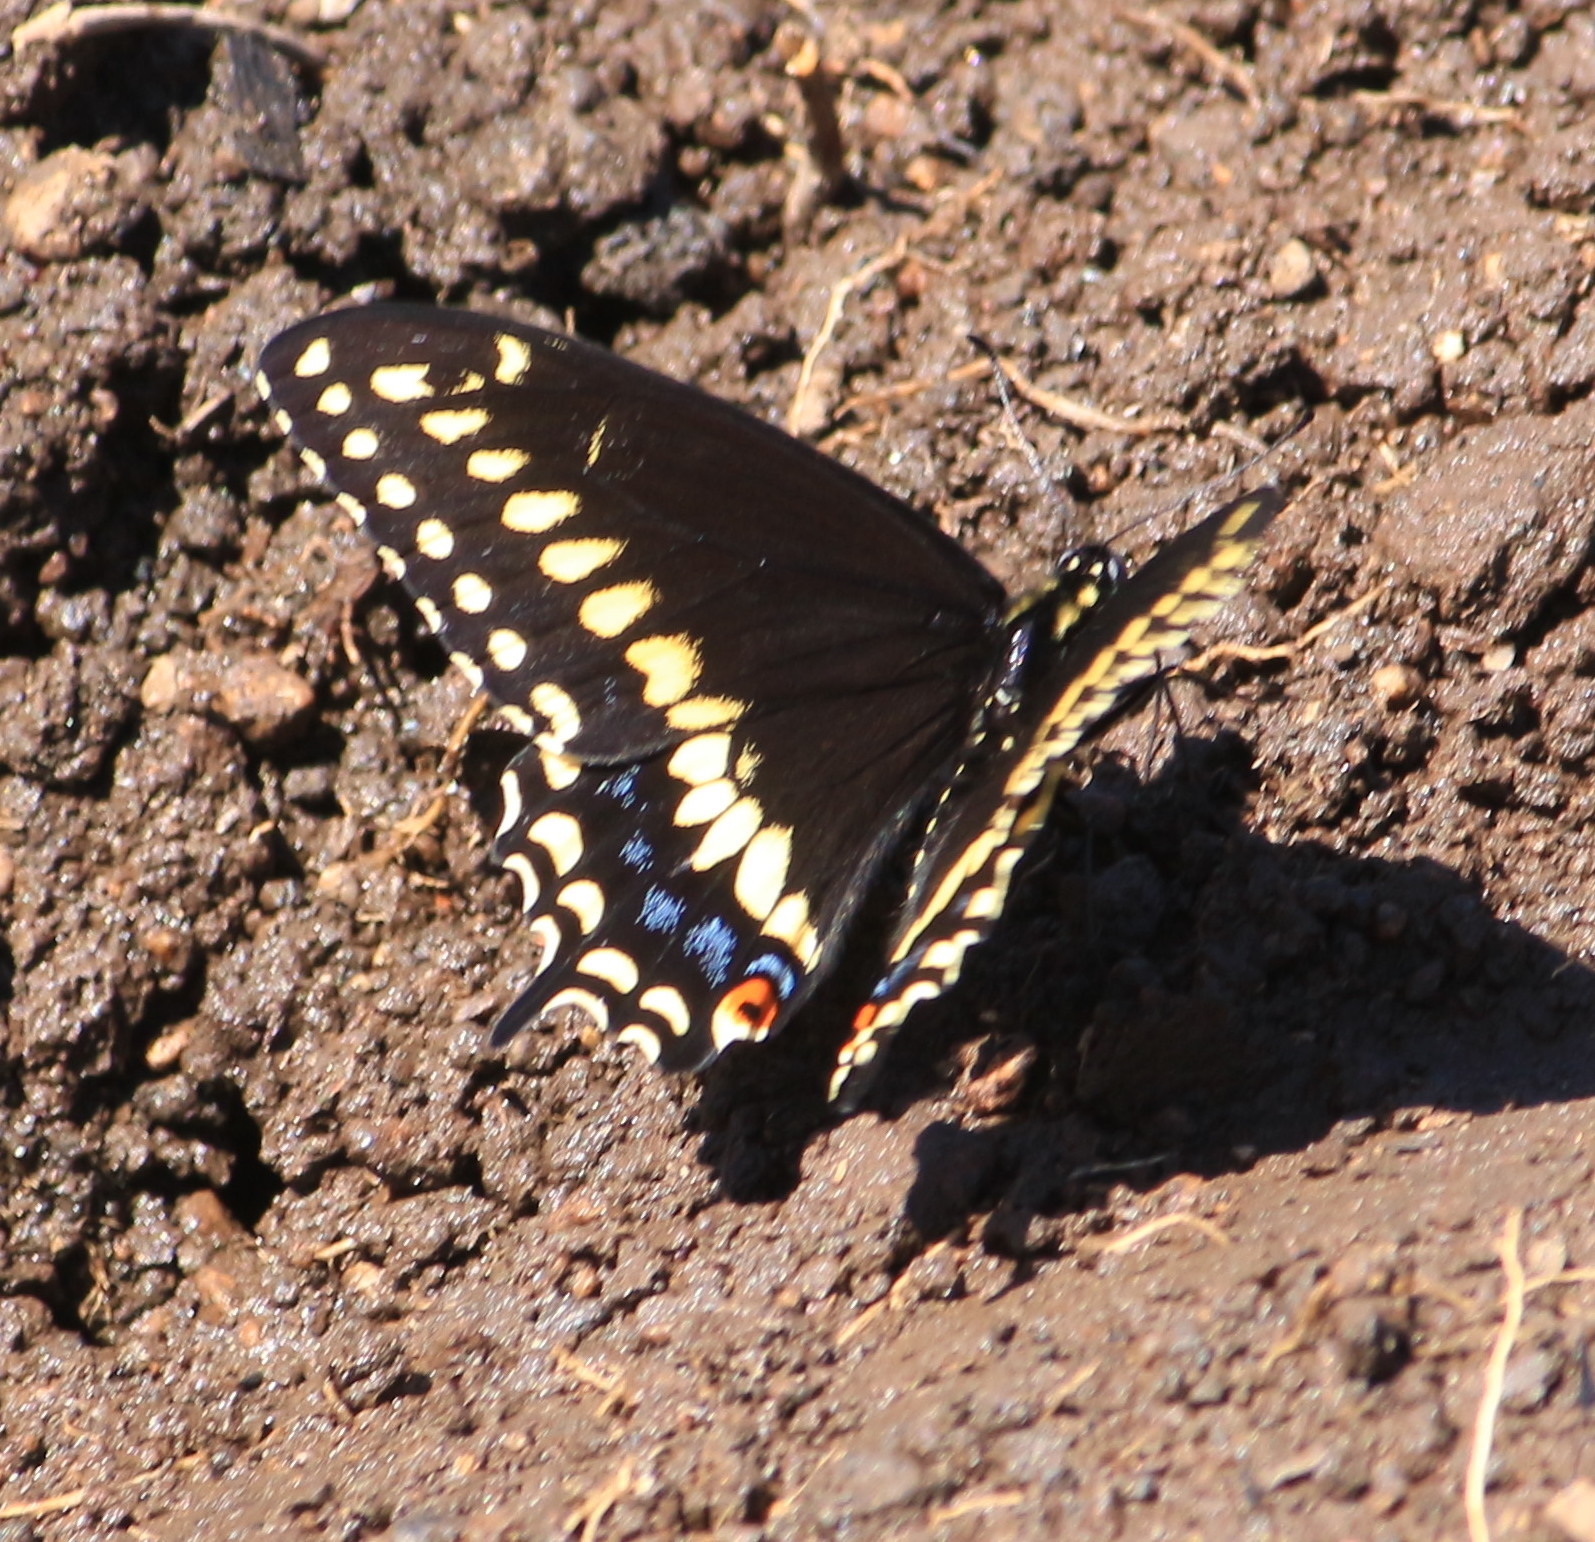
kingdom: Animalia
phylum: Arthropoda
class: Insecta
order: Lepidoptera
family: Papilionidae
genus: Papilio
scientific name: Papilio polyxenes
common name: Black swallowtail
